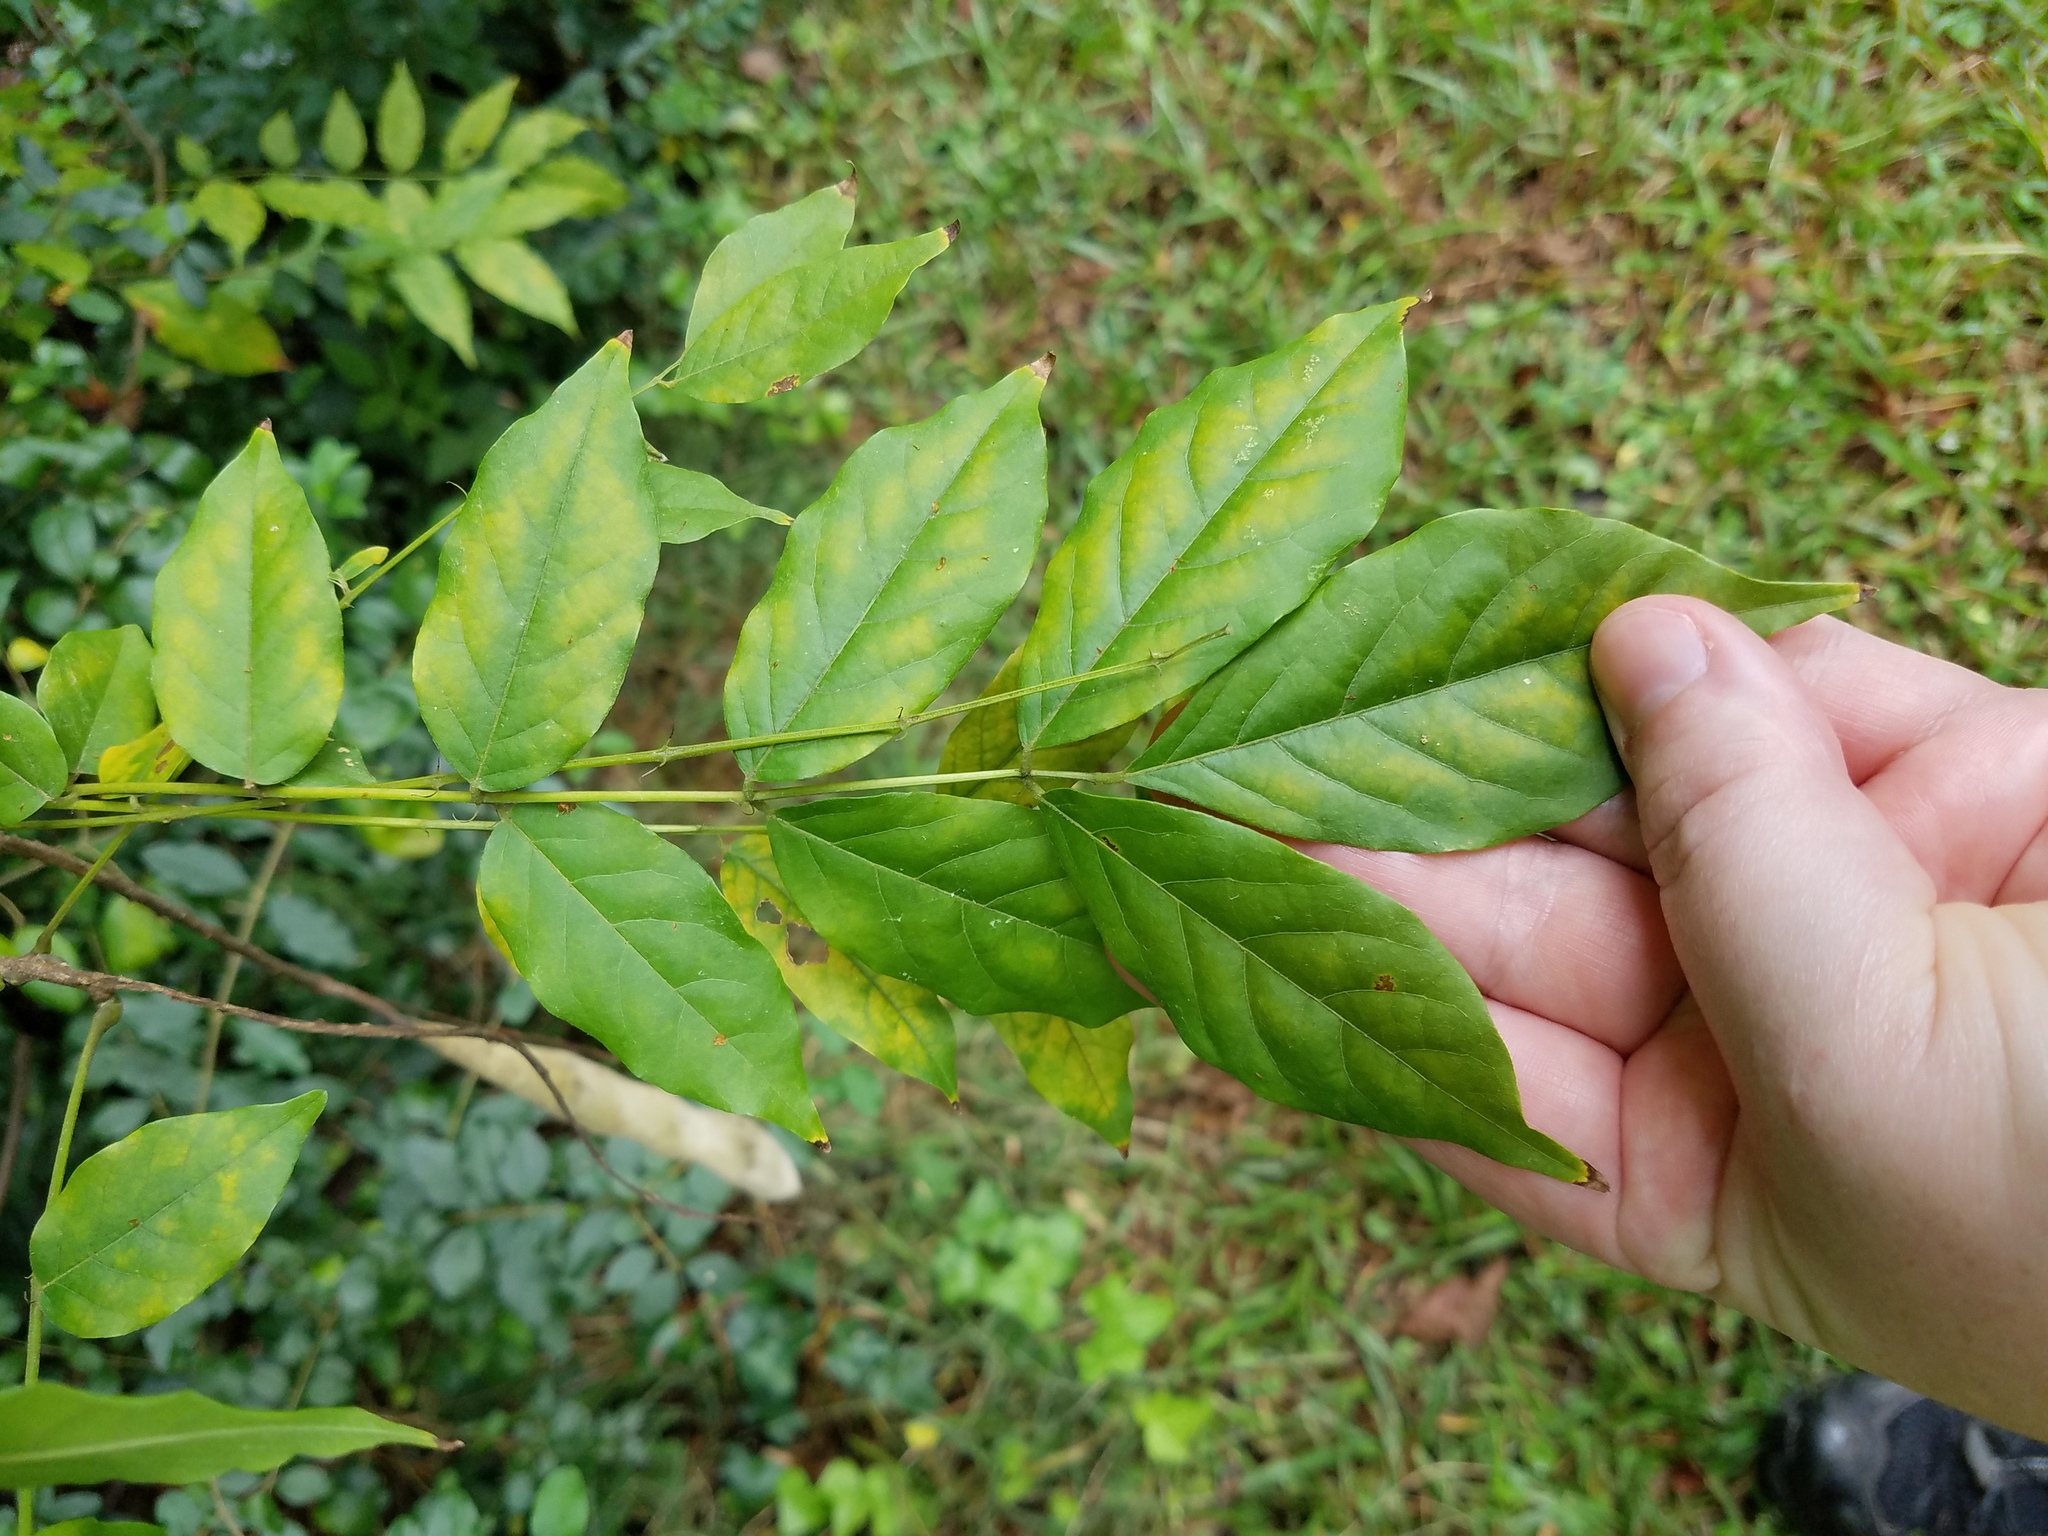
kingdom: Plantae
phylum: Tracheophyta
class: Magnoliopsida
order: Fabales
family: Fabaceae
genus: Wisteria
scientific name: Wisteria sinensis
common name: Chinese wisteria
